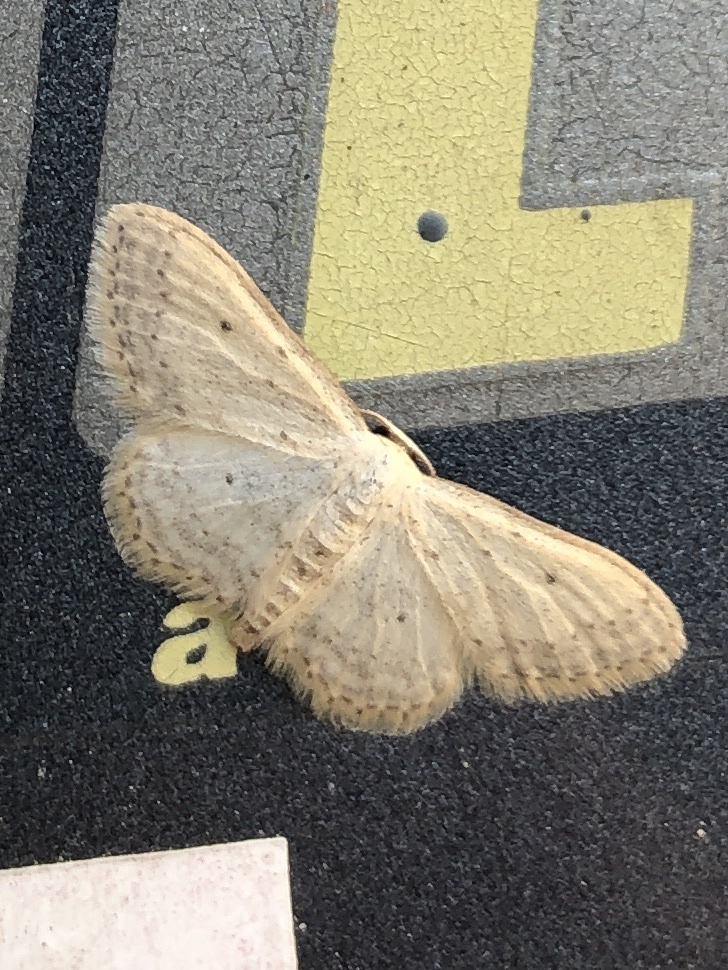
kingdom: Animalia
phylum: Arthropoda
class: Insecta
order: Lepidoptera
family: Geometridae
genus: Idaea
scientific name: Idaea seriata
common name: Small dusty wave
